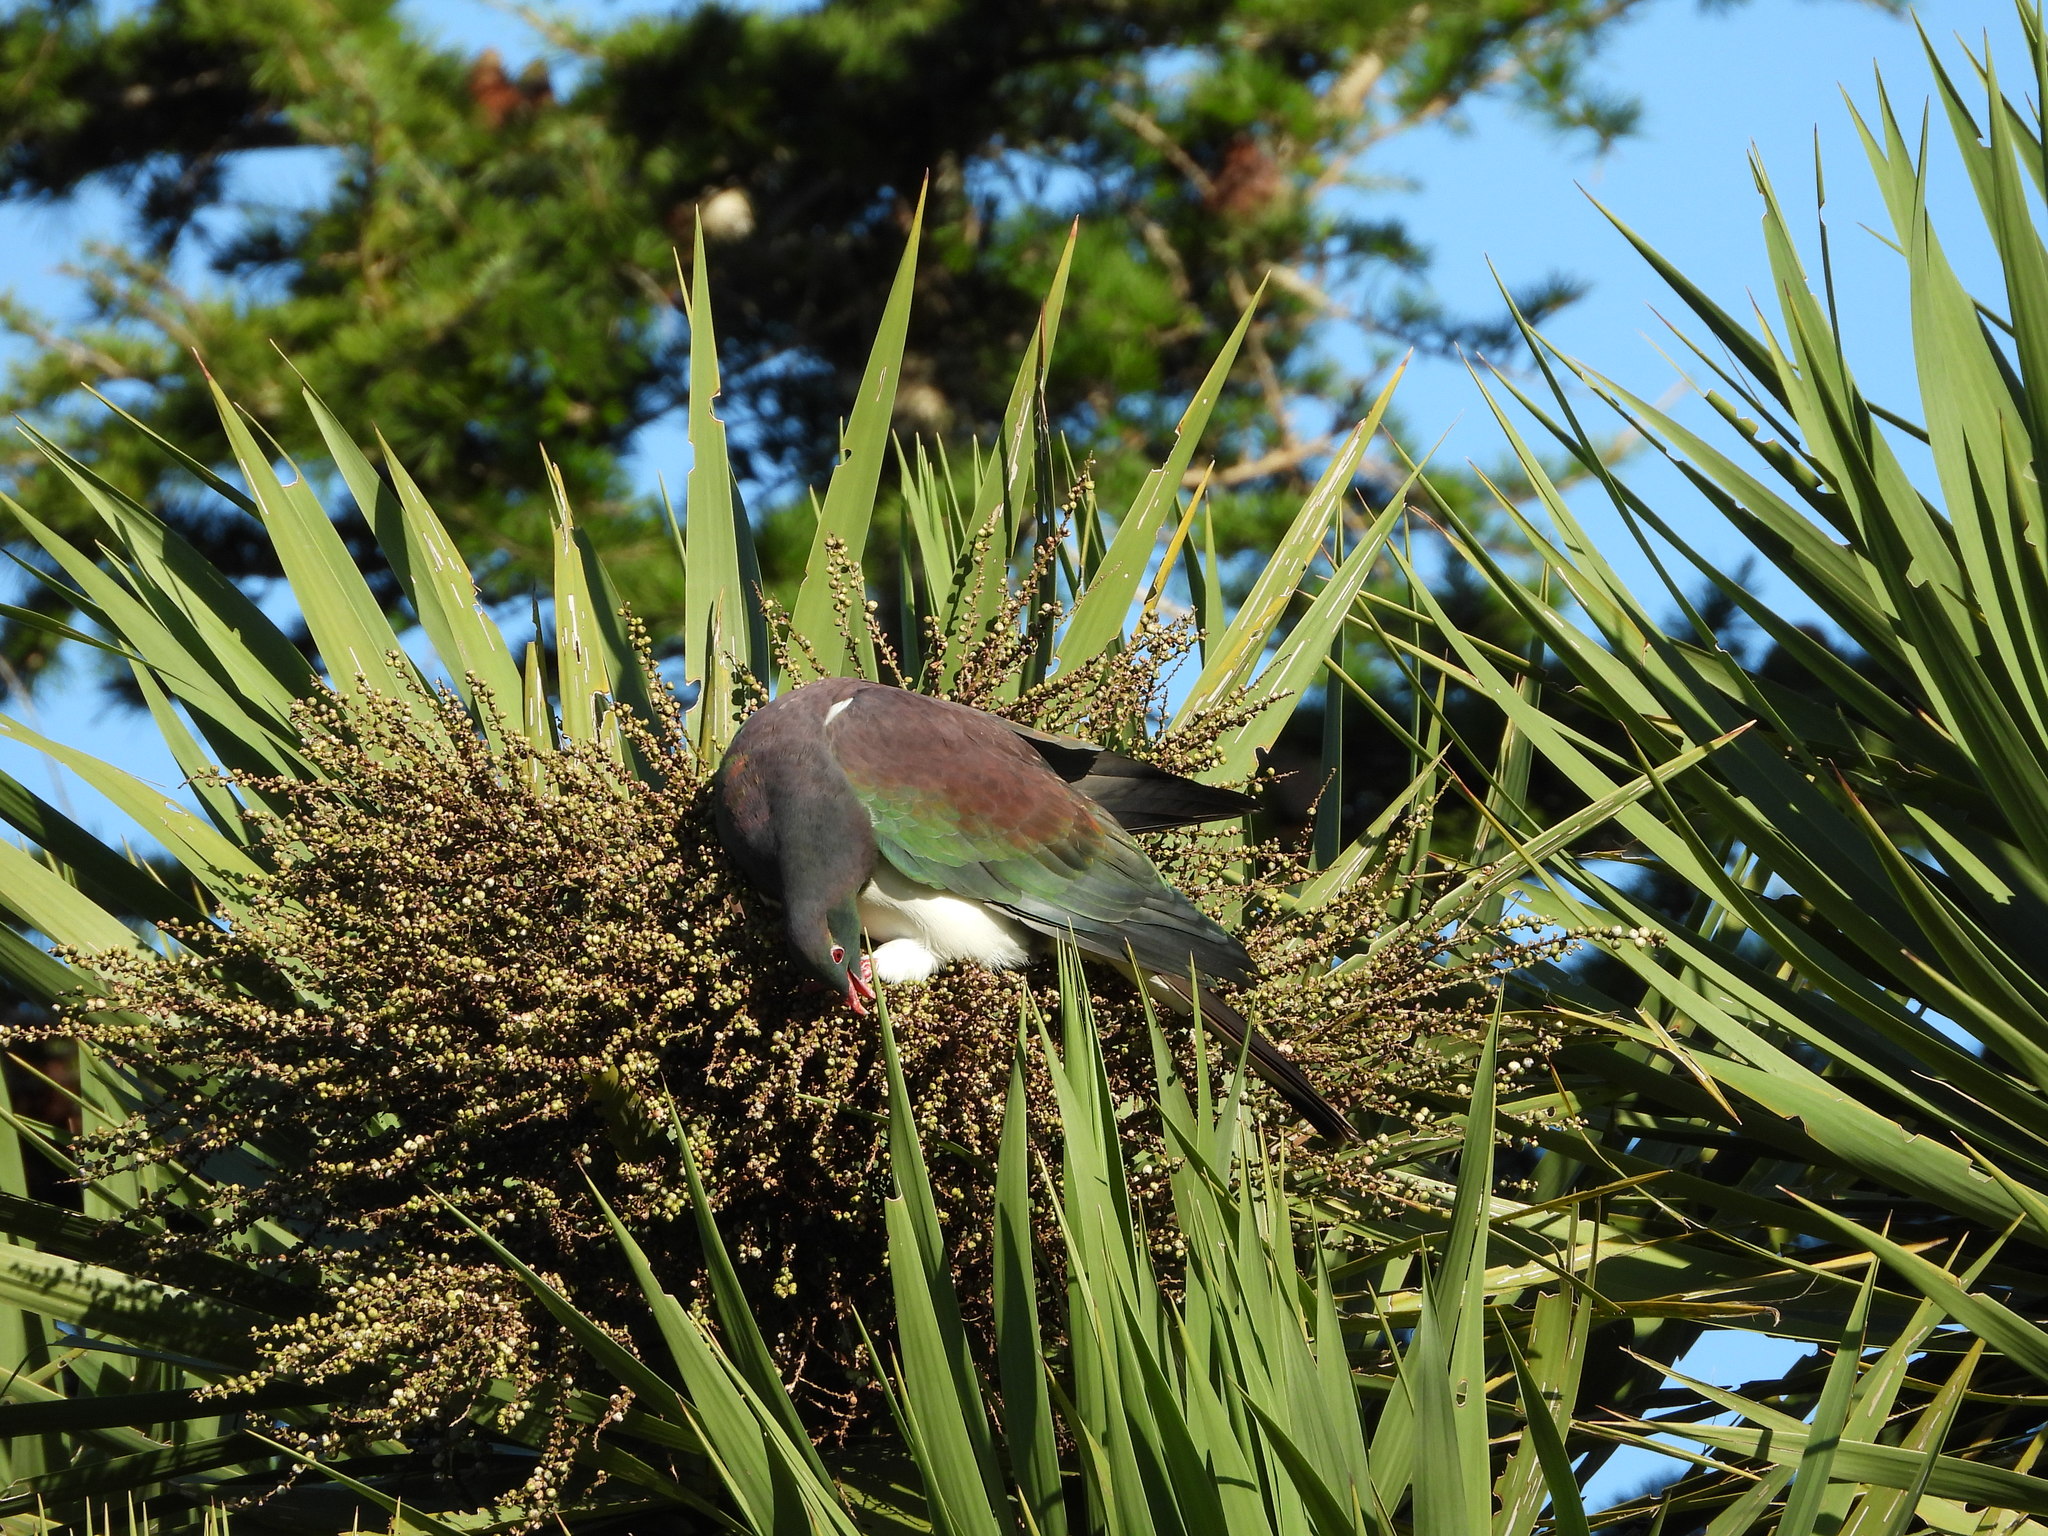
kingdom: Animalia
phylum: Chordata
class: Aves
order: Columbiformes
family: Columbidae
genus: Hemiphaga
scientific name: Hemiphaga novaeseelandiae
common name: New zealand pigeon
